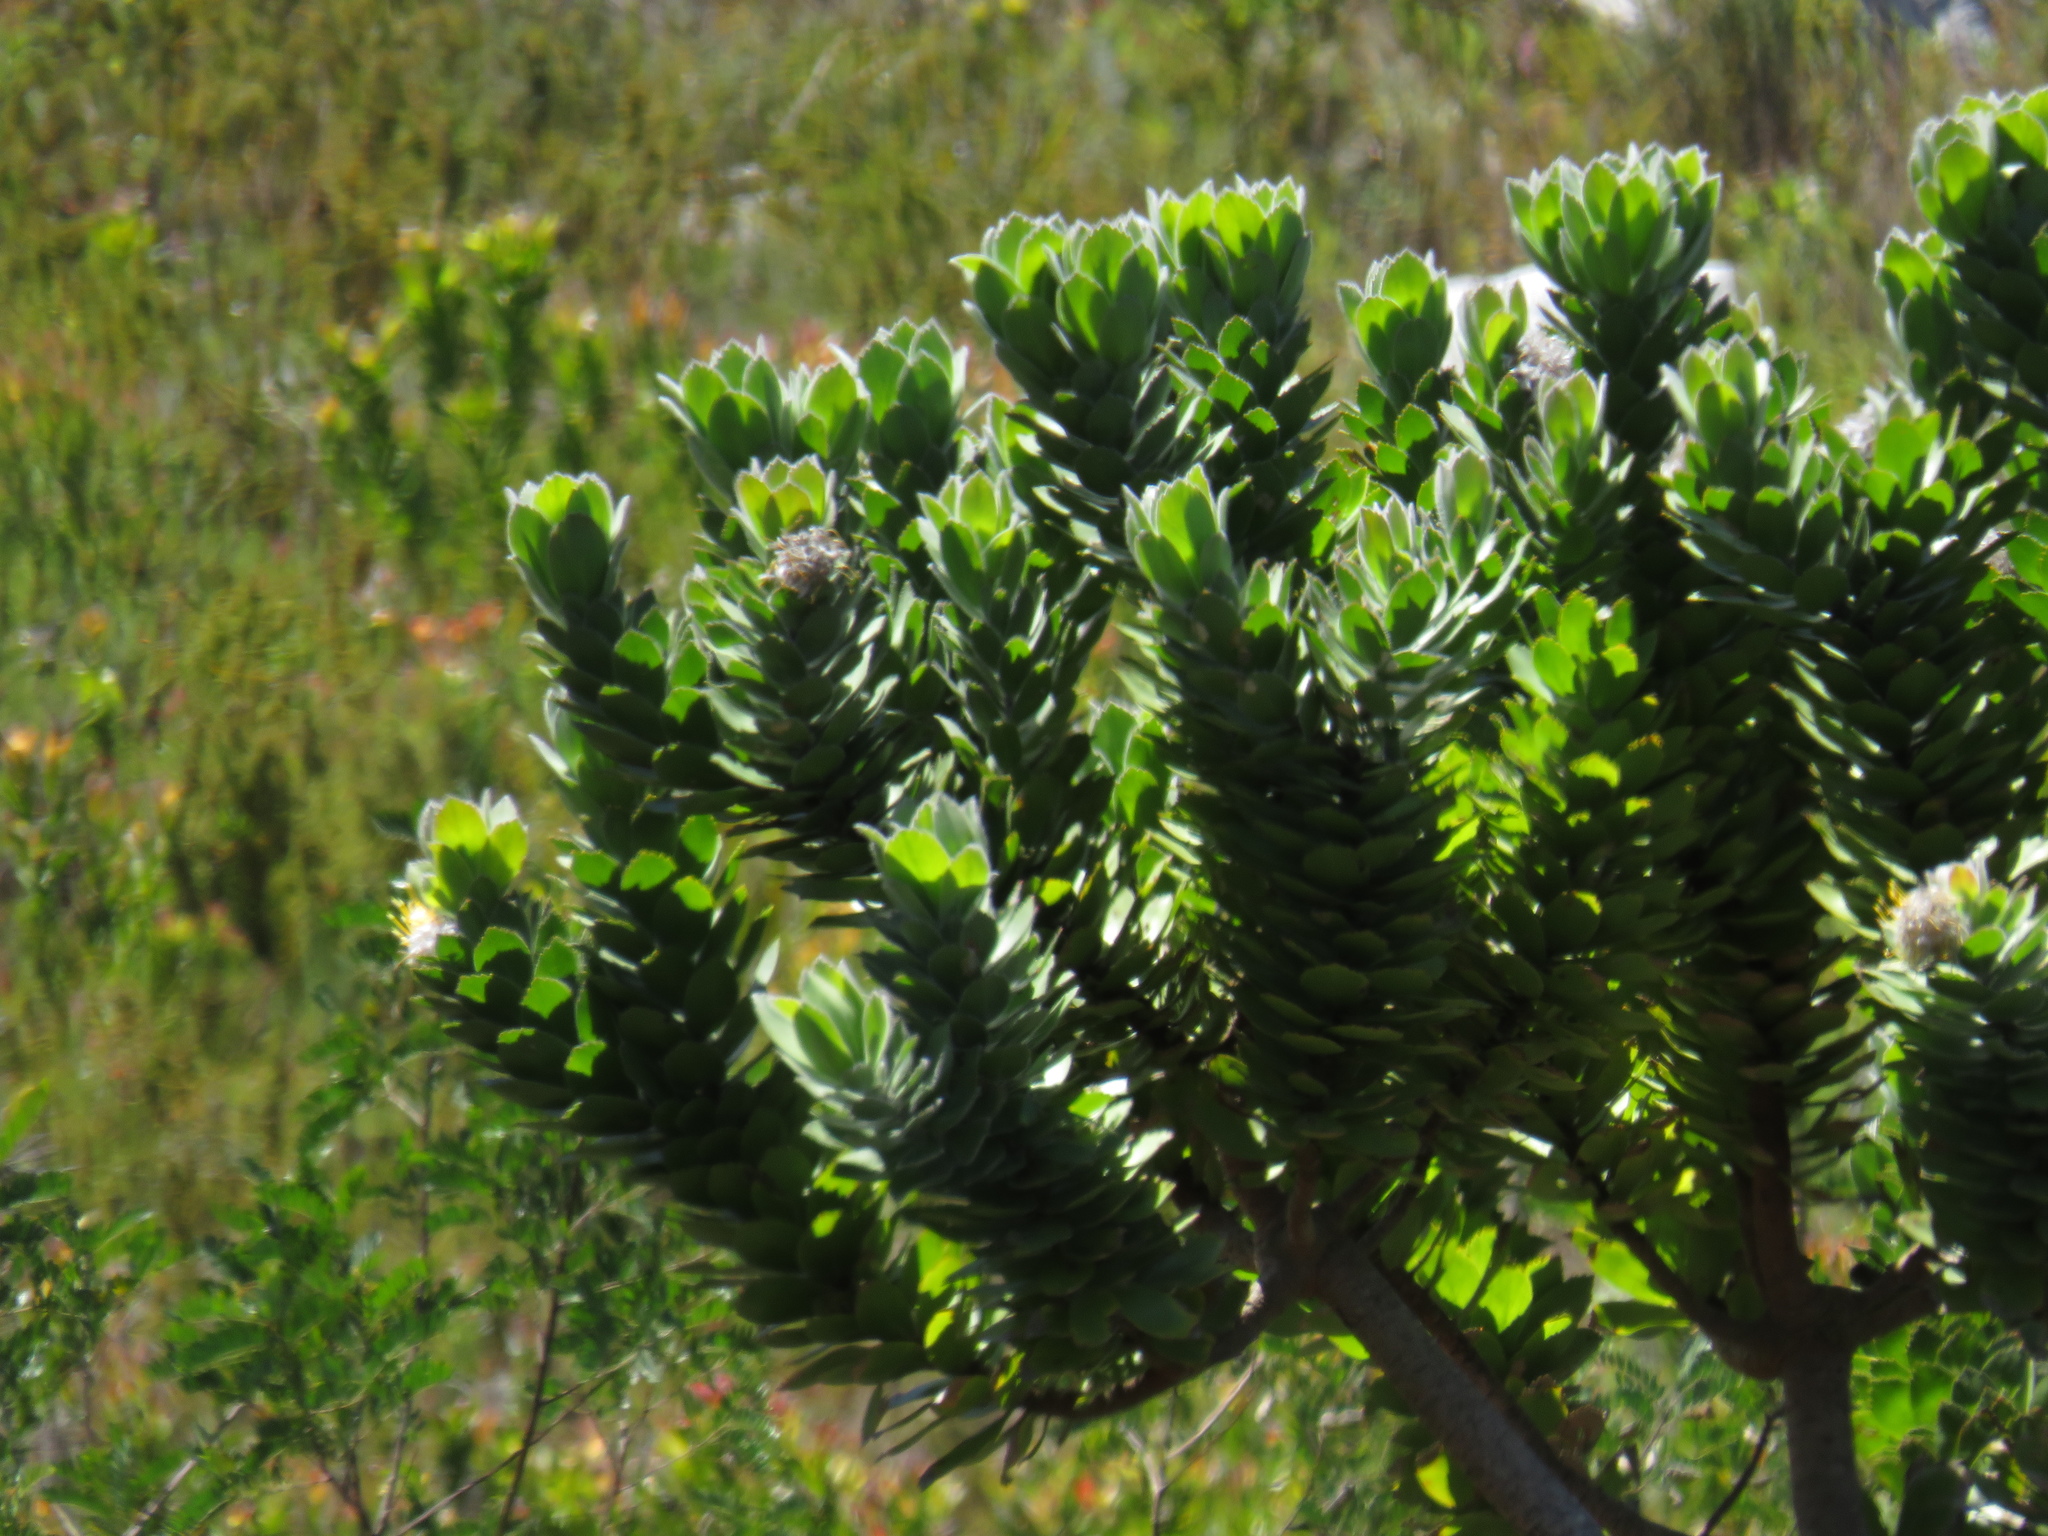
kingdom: Plantae
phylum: Tracheophyta
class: Magnoliopsida
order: Proteales
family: Proteaceae
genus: Leucospermum
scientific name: Leucospermum conocarpodendron
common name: Tree pincushion
